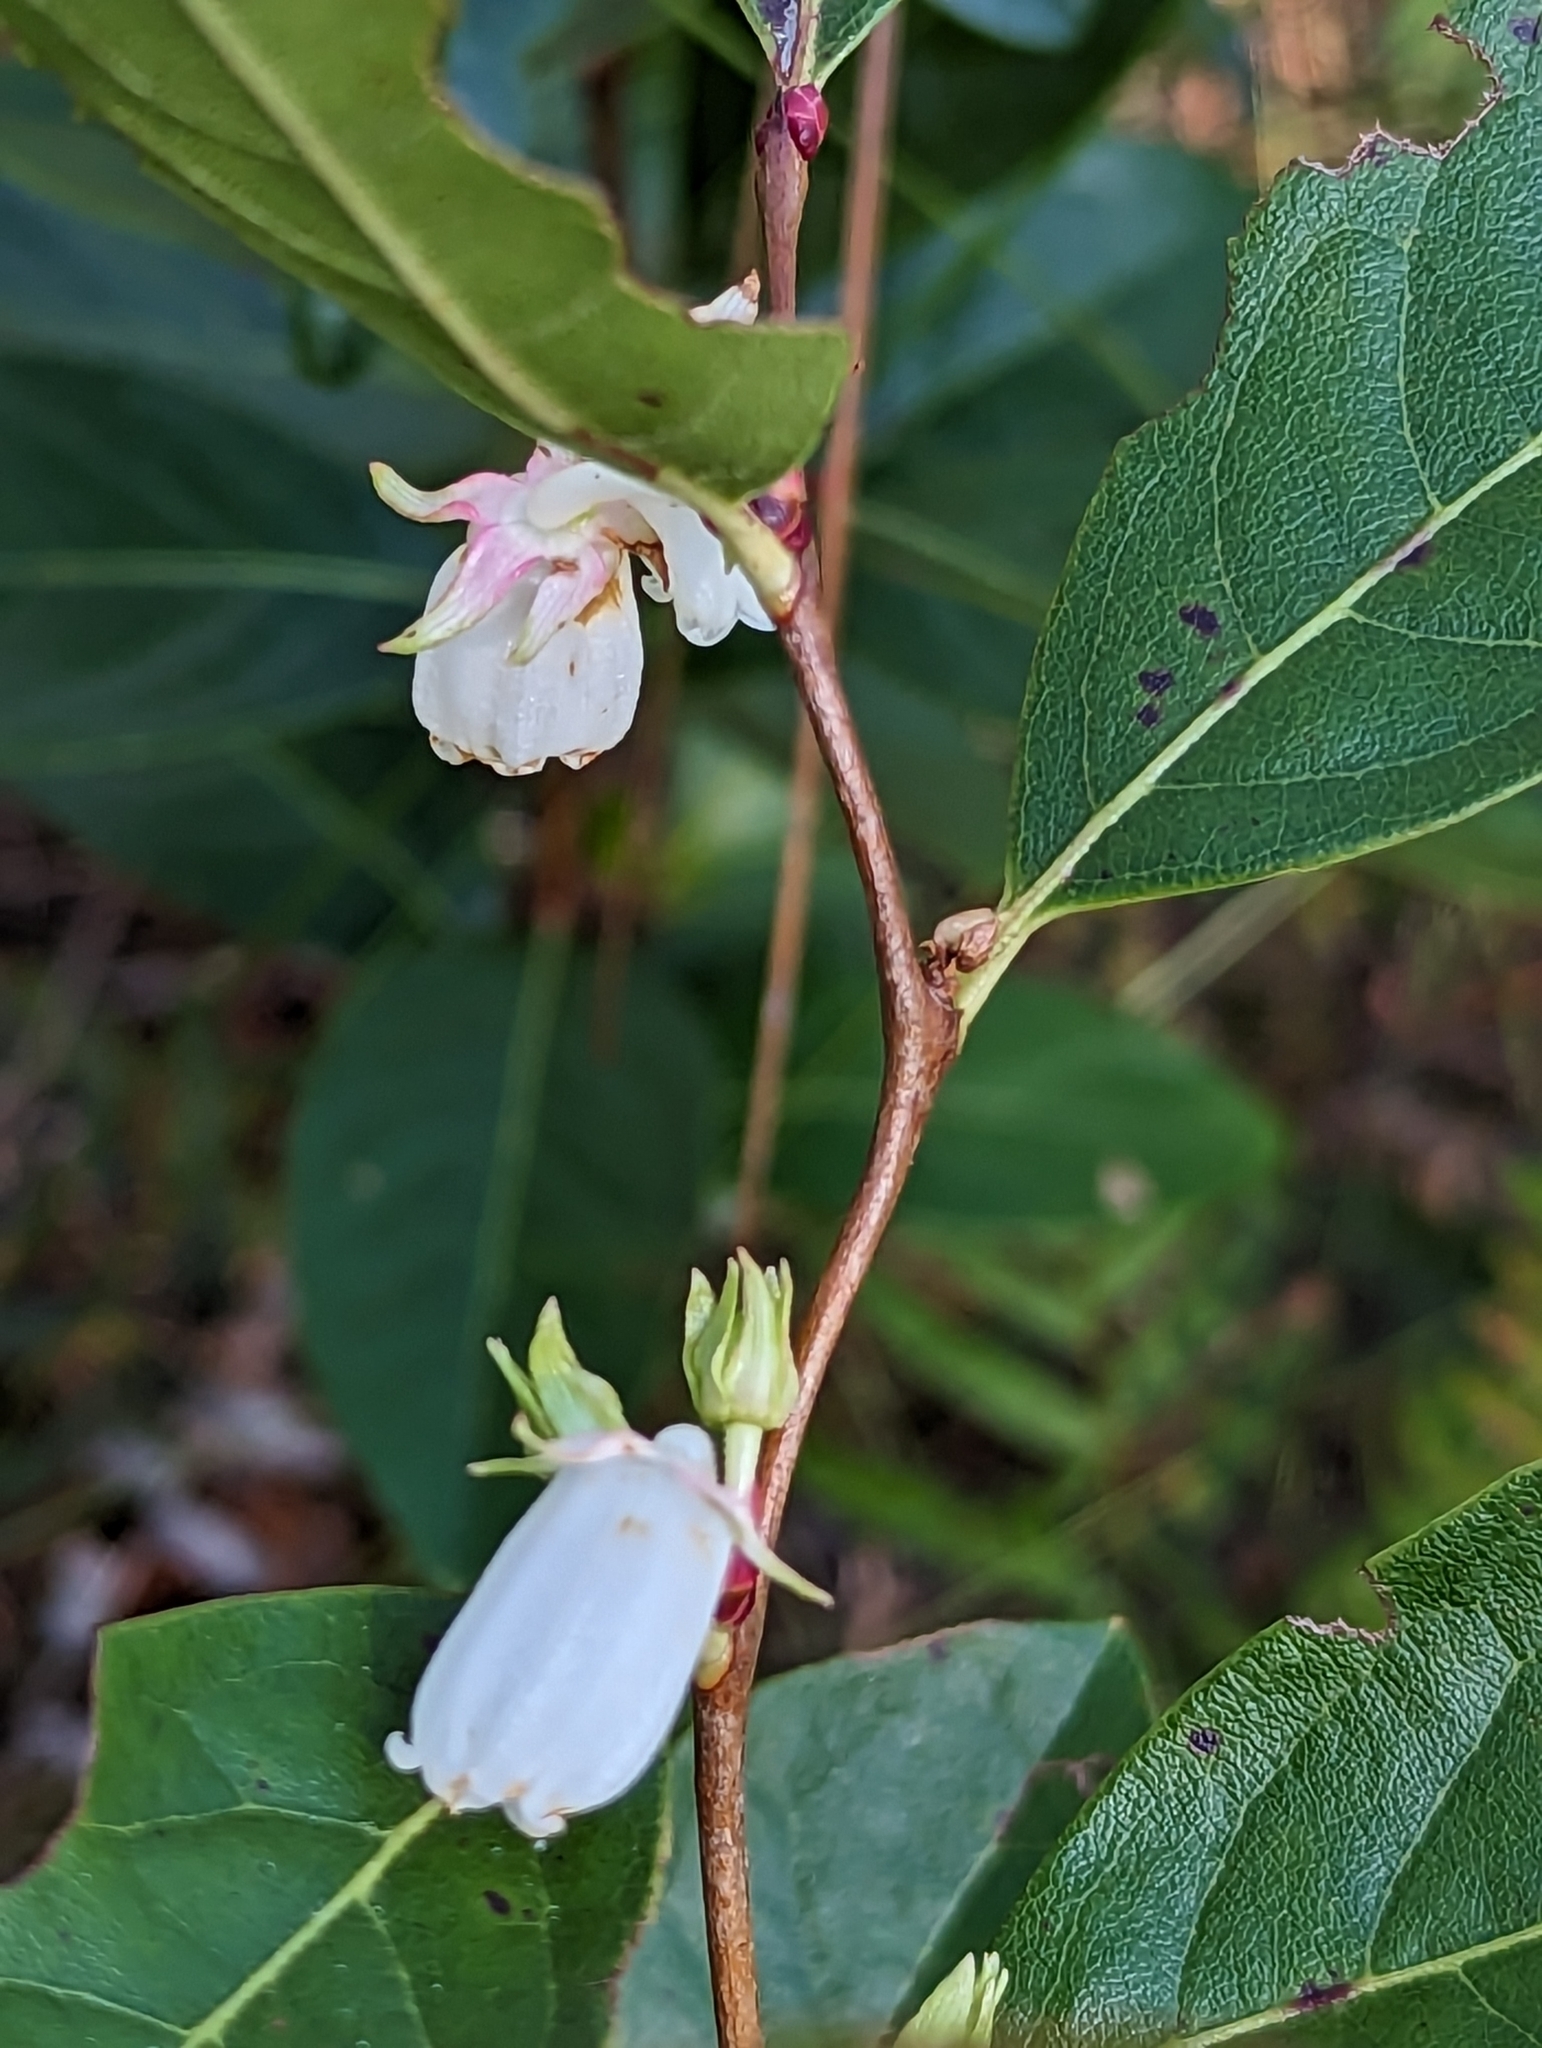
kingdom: Plantae
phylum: Tracheophyta
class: Magnoliopsida
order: Ericales
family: Ericaceae
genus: Lyonia
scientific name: Lyonia mariana
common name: Staggerbush
